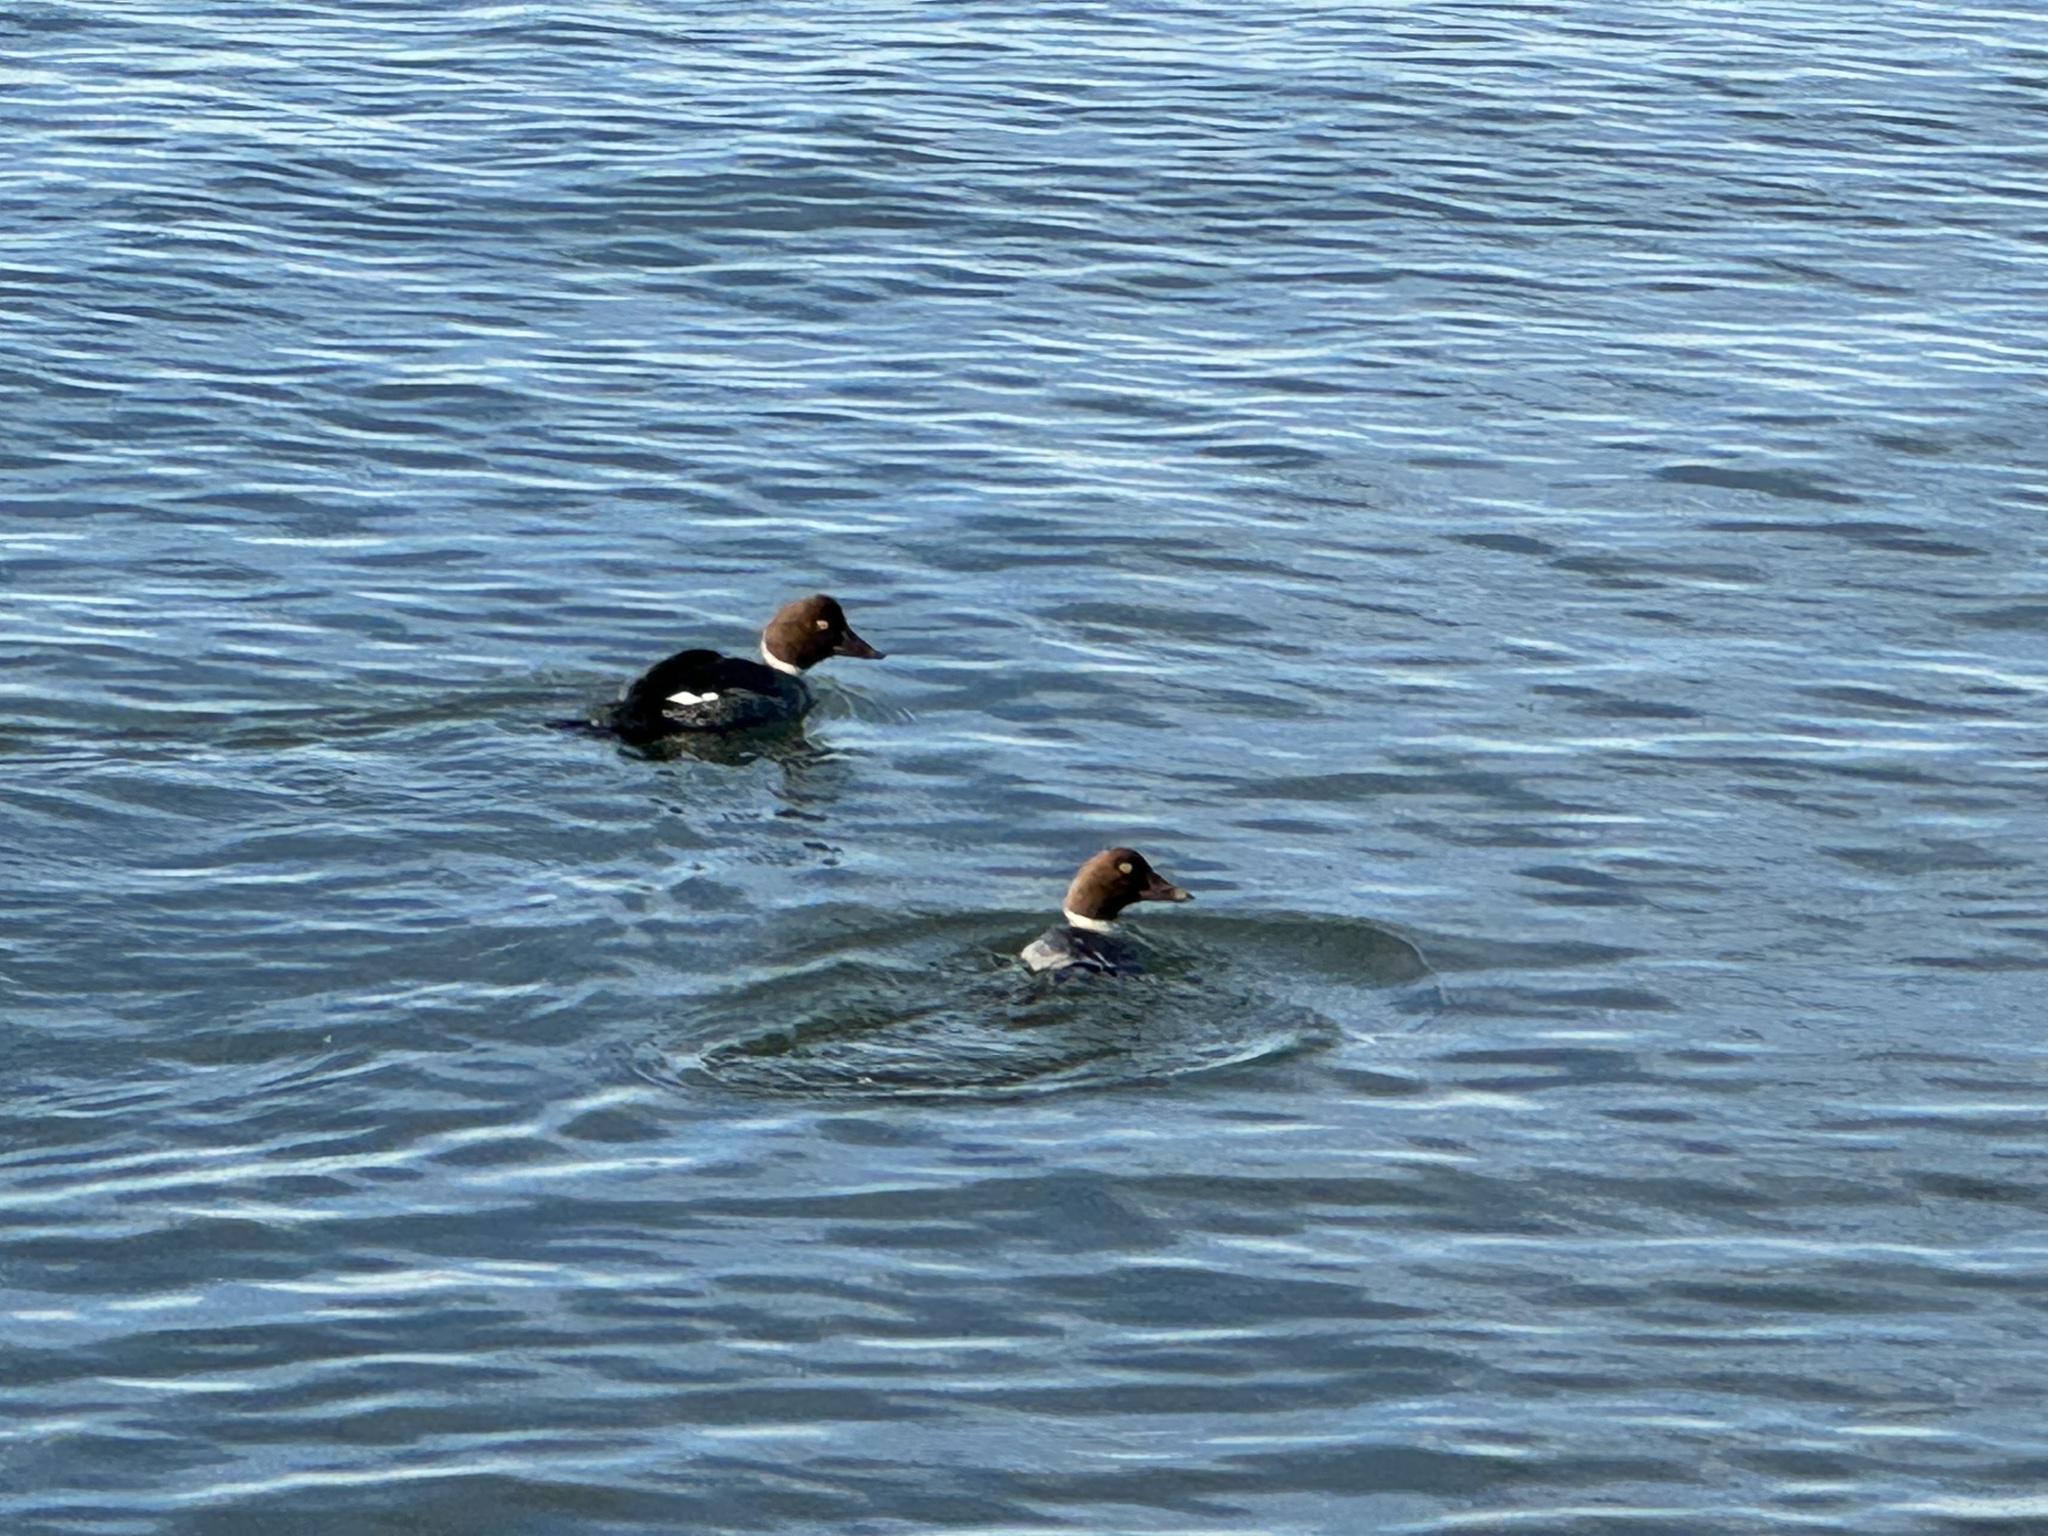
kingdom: Animalia
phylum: Chordata
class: Aves
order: Anseriformes
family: Anatidae
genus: Bucephala
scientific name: Bucephala clangula
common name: Common goldeneye
